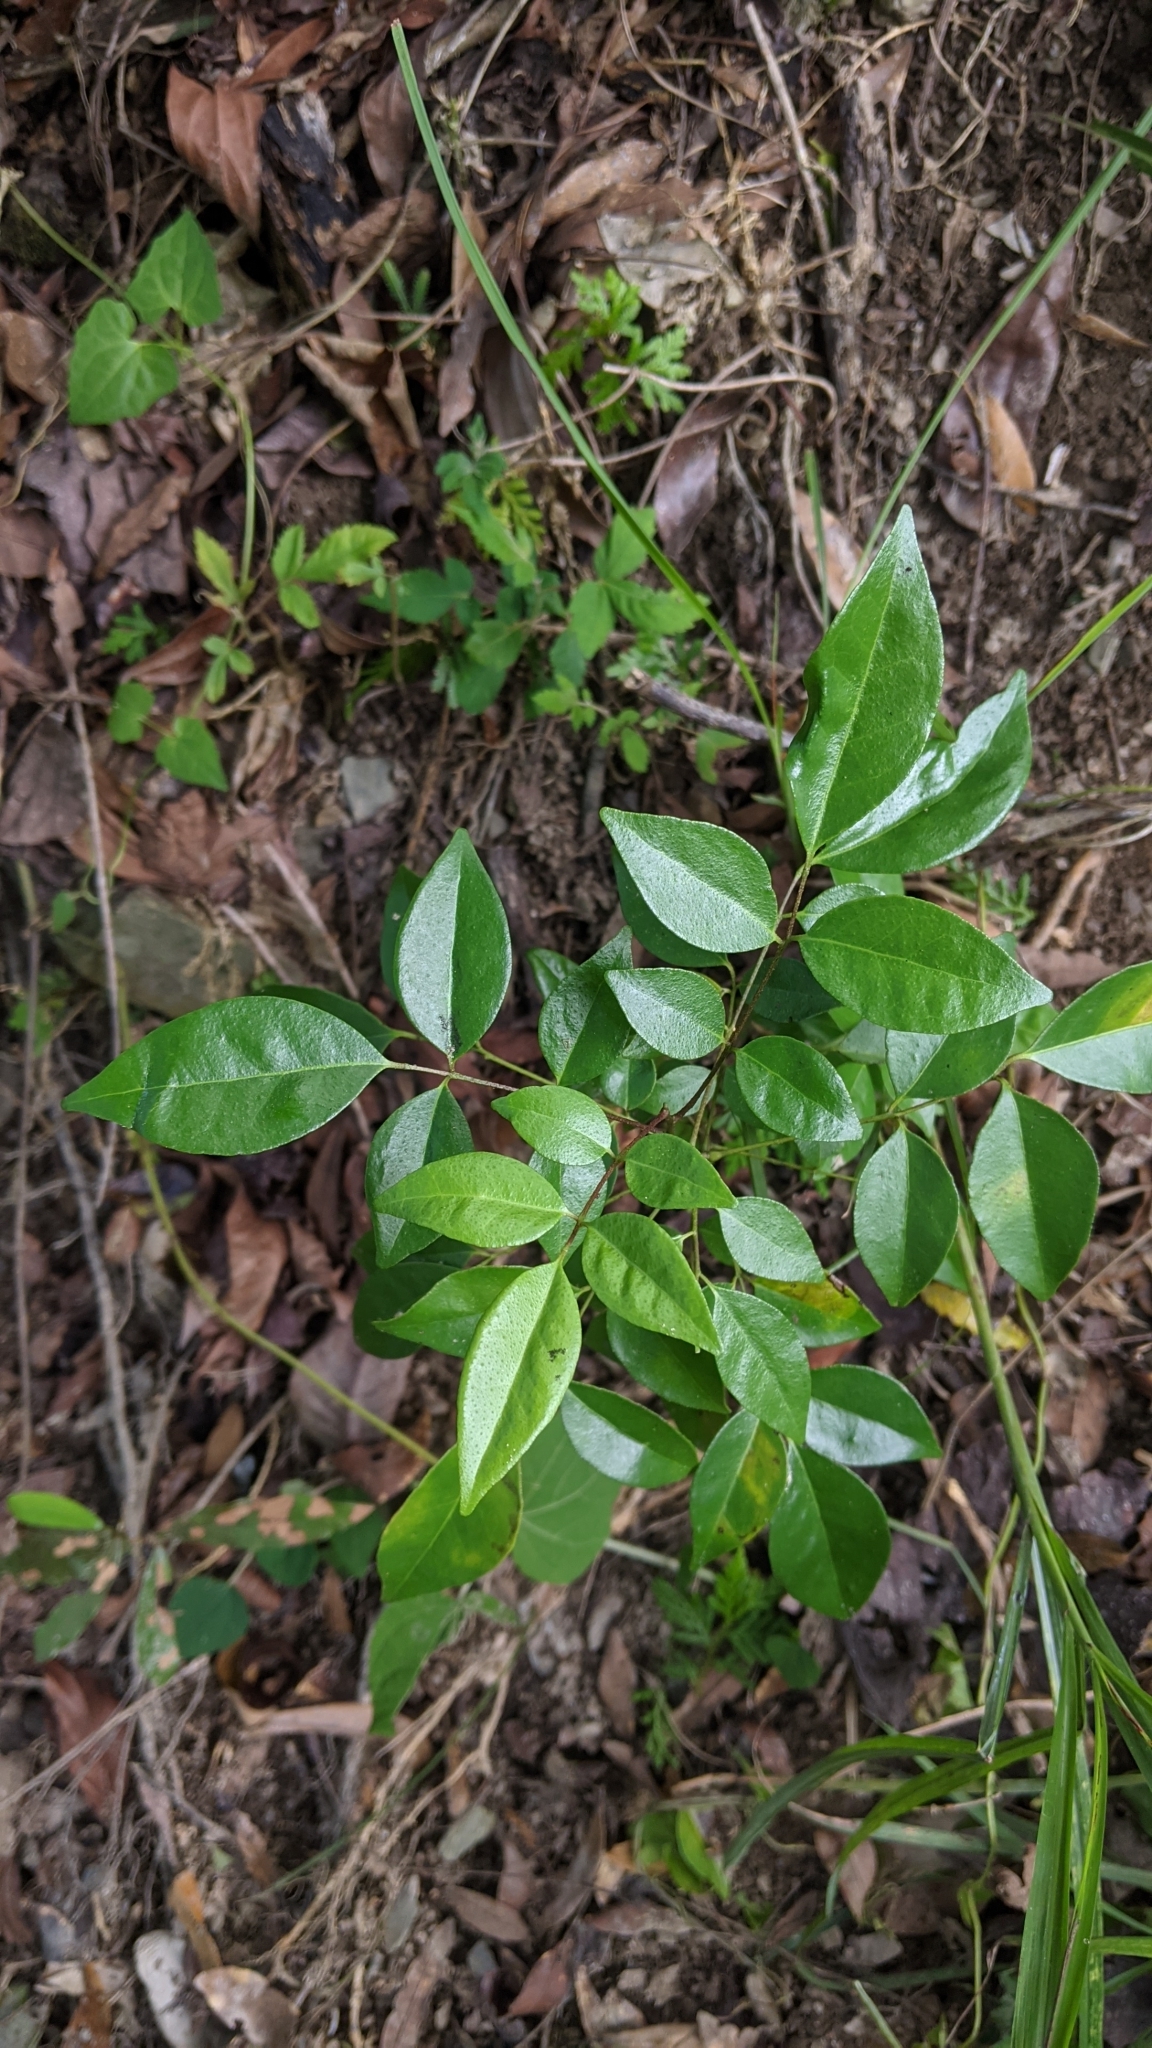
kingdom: Plantae
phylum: Tracheophyta
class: Magnoliopsida
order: Sapindales
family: Rutaceae
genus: Murraya
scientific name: Murraya euchrestifolia
